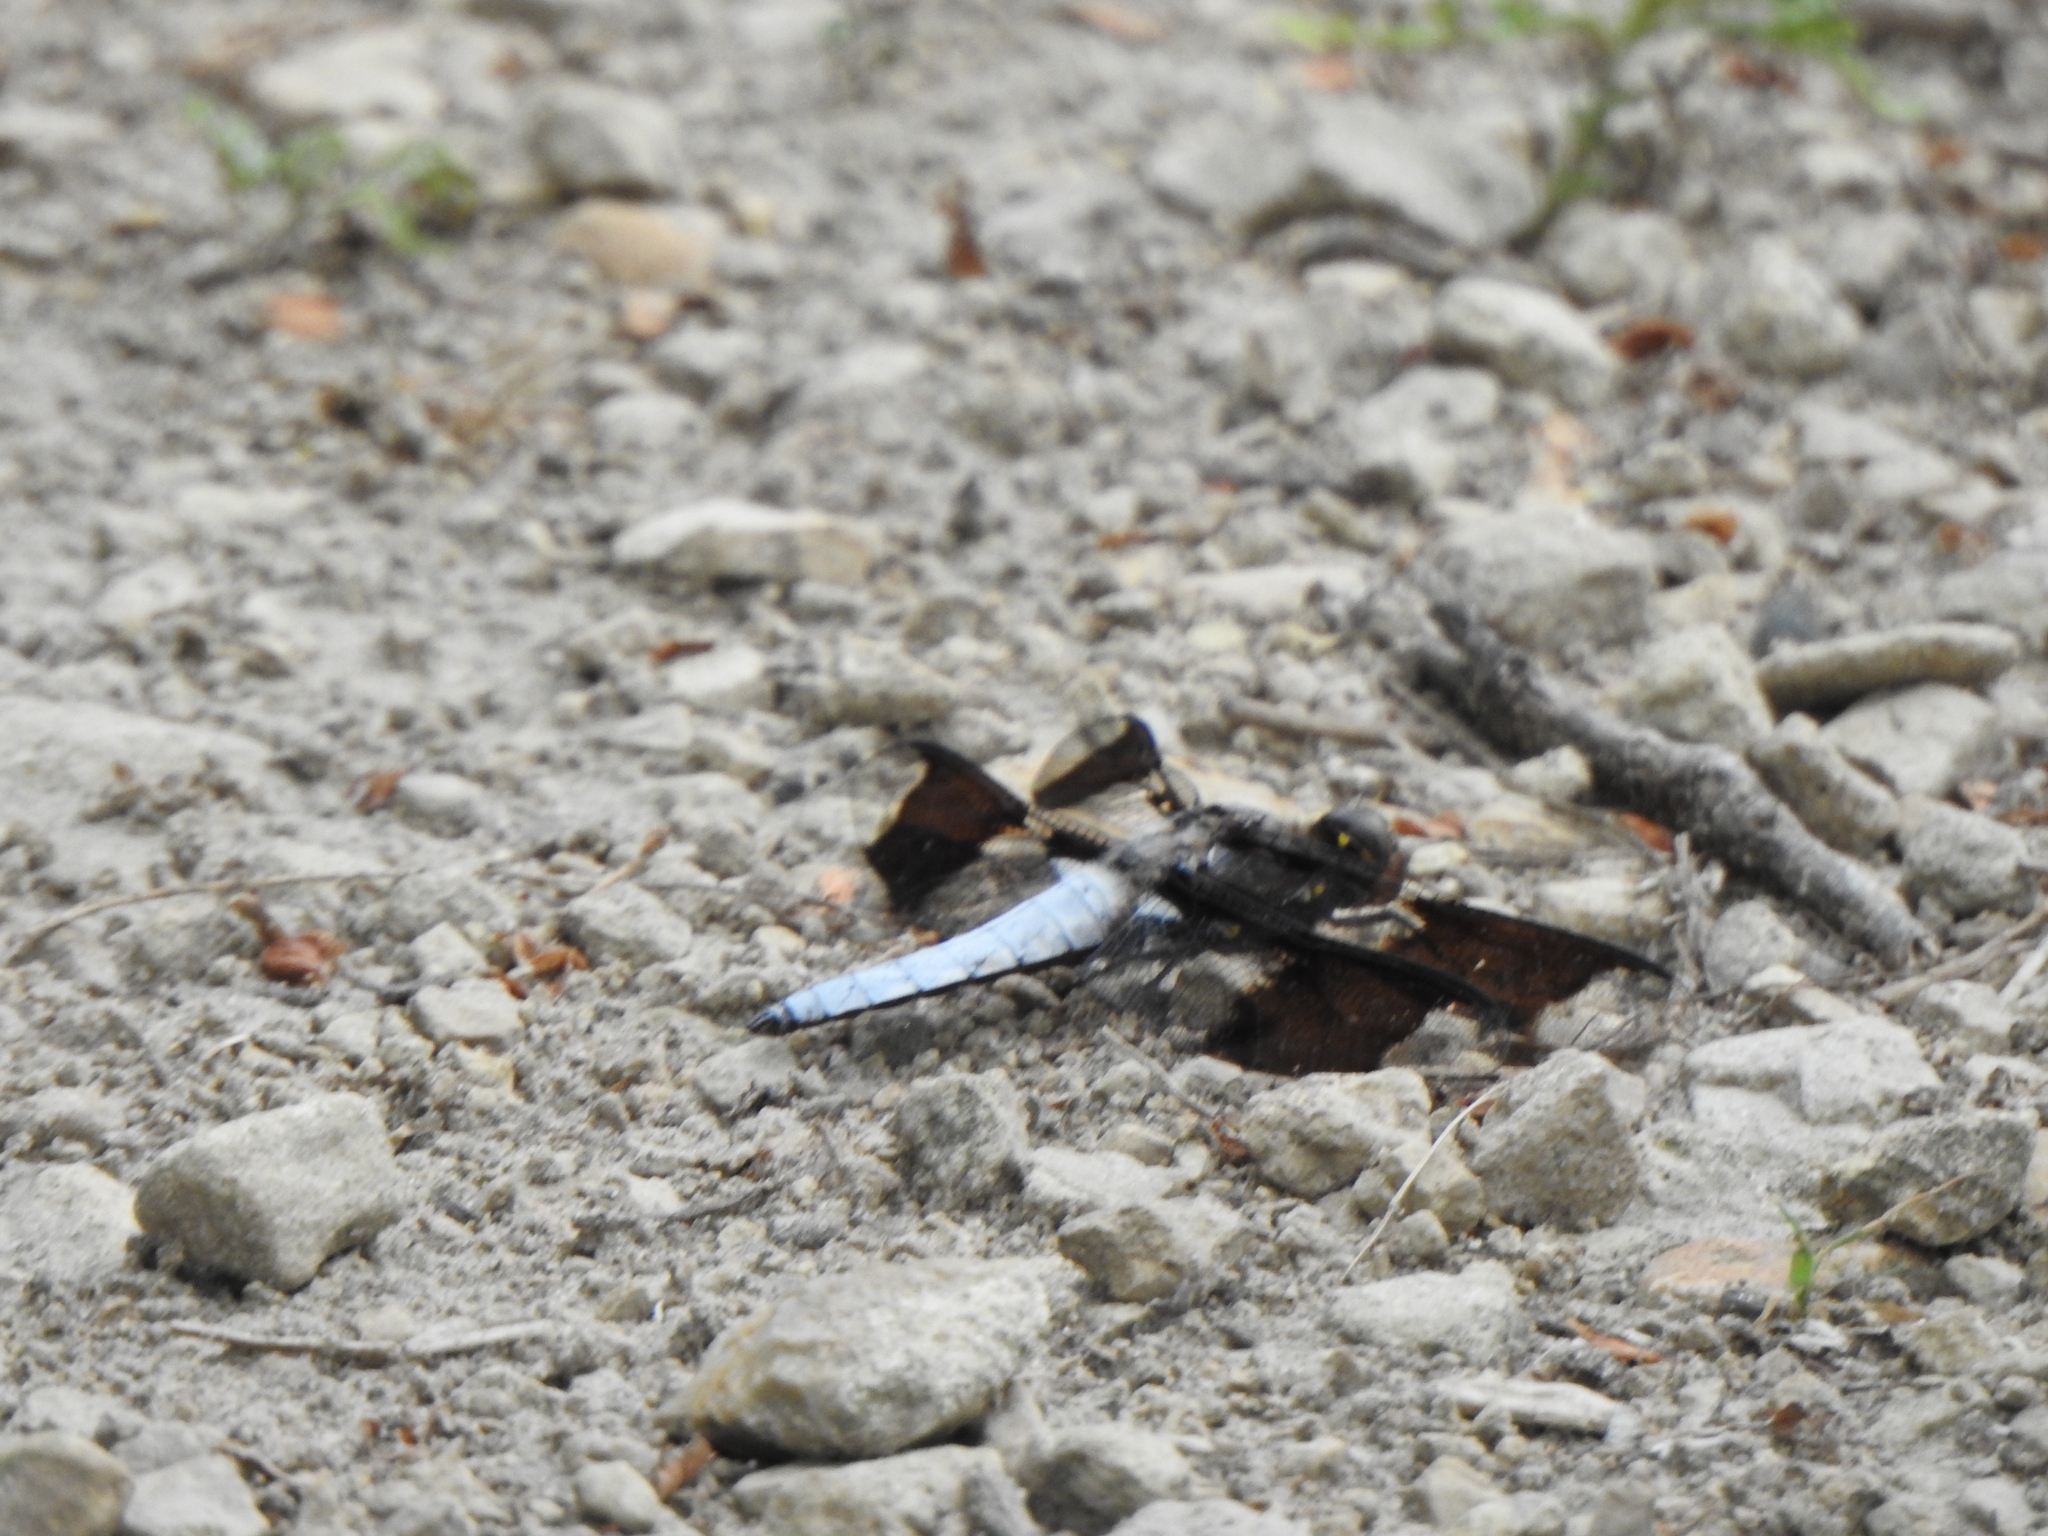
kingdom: Animalia
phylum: Arthropoda
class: Insecta
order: Odonata
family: Libellulidae
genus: Plathemis
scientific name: Plathemis lydia
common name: Common whitetail
